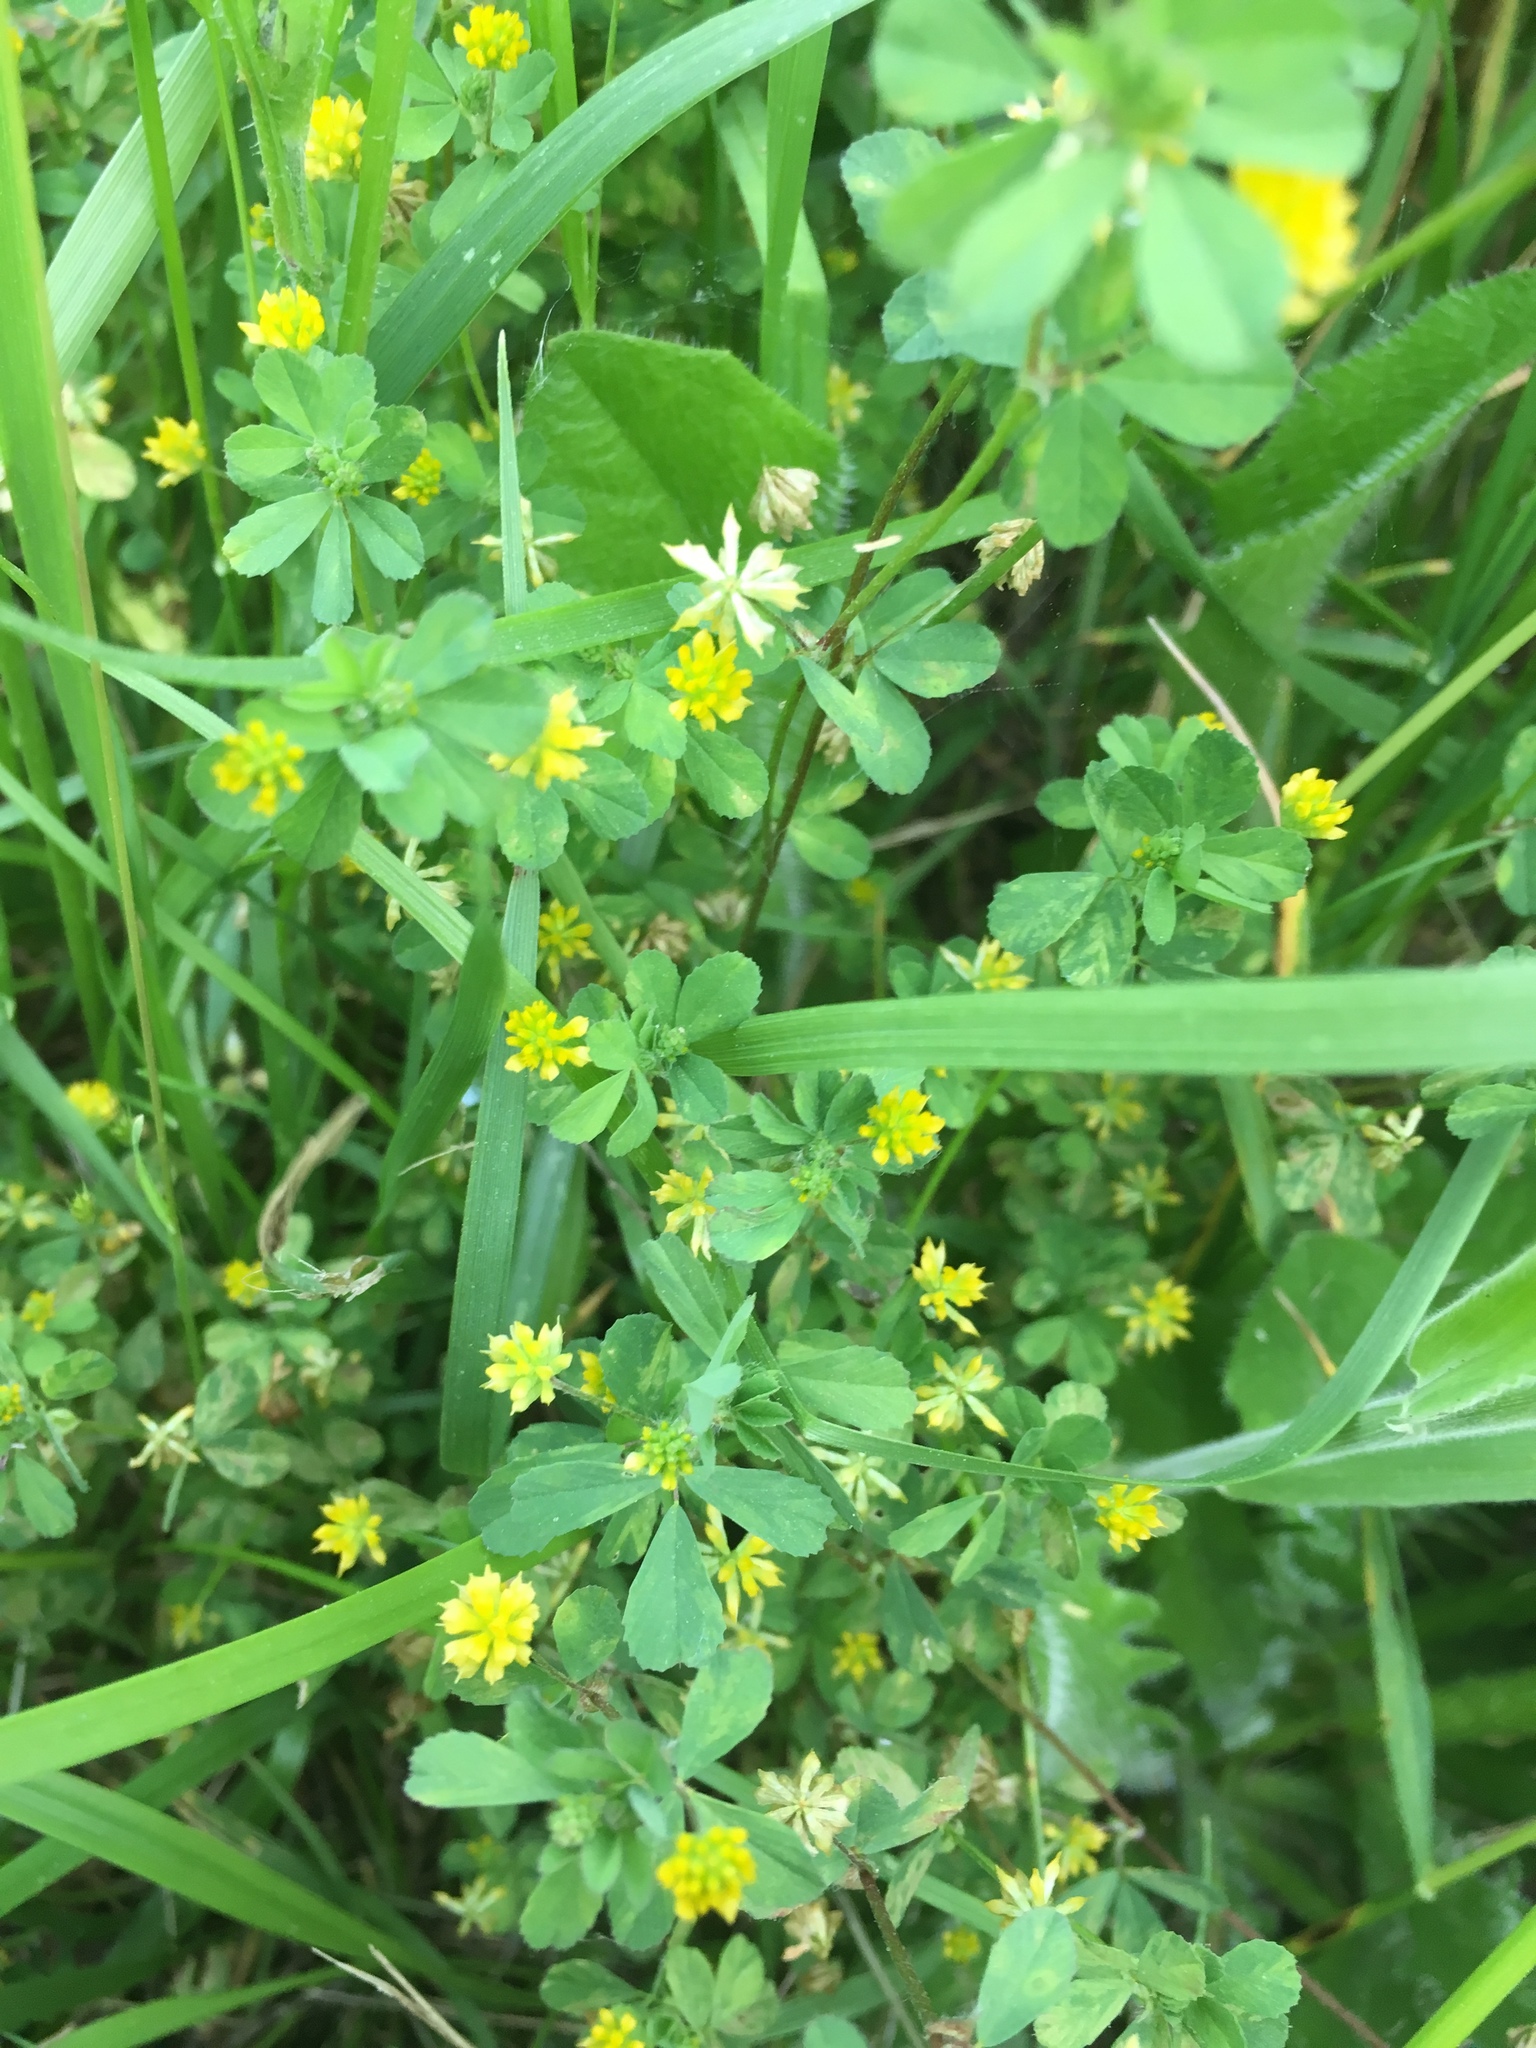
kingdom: Plantae
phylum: Tracheophyta
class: Magnoliopsida
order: Fabales
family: Fabaceae
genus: Trifolium
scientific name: Trifolium dubium
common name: Suckling clover
